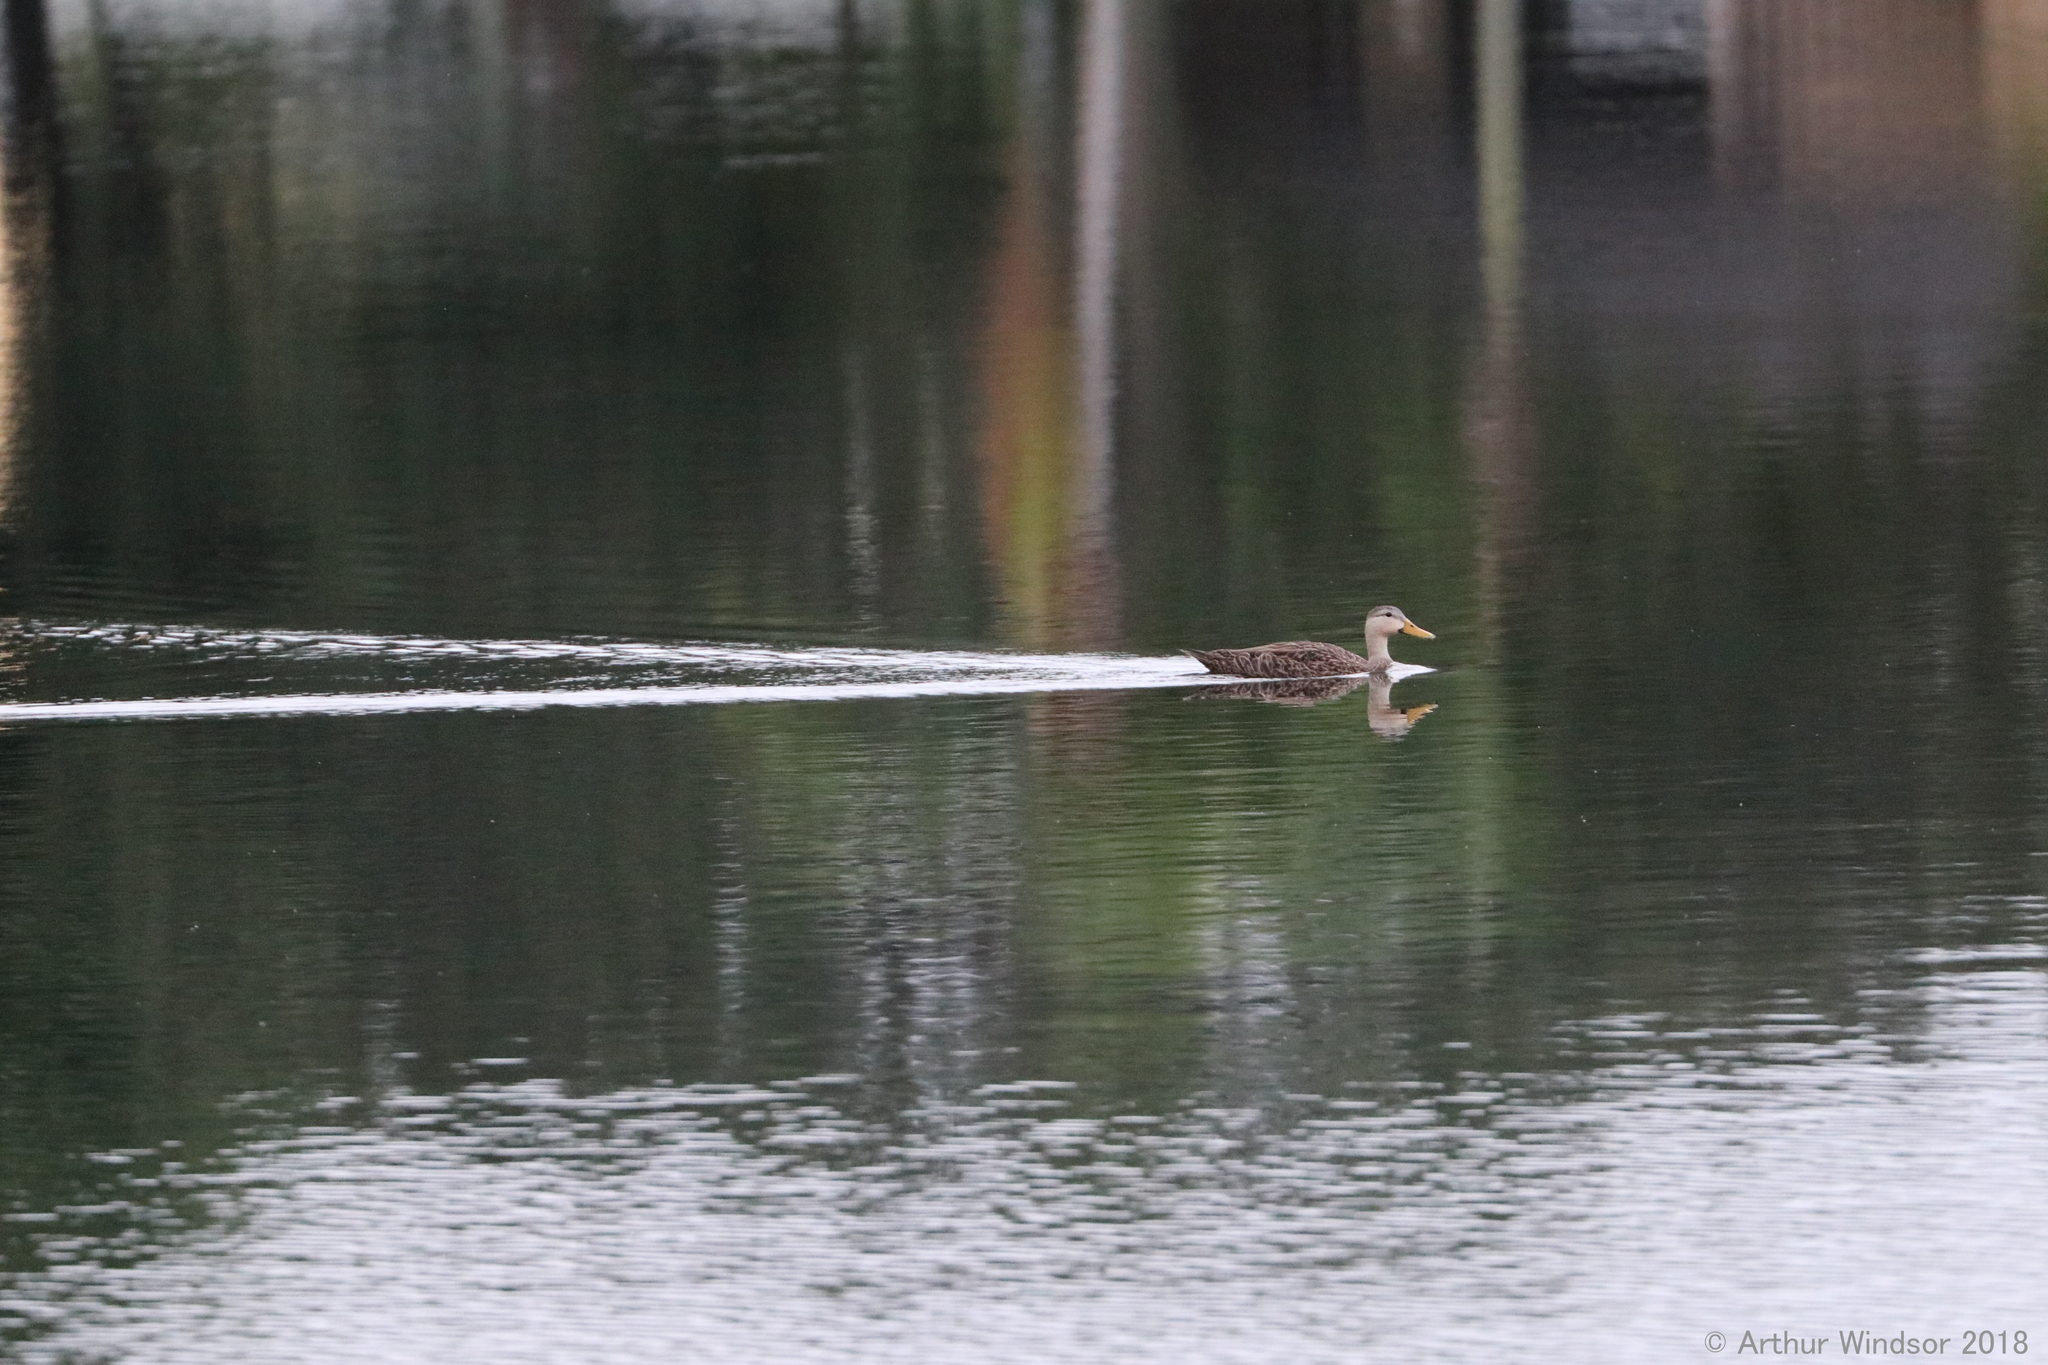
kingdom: Animalia
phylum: Chordata
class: Aves
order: Anseriformes
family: Anatidae
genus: Anas
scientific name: Anas
